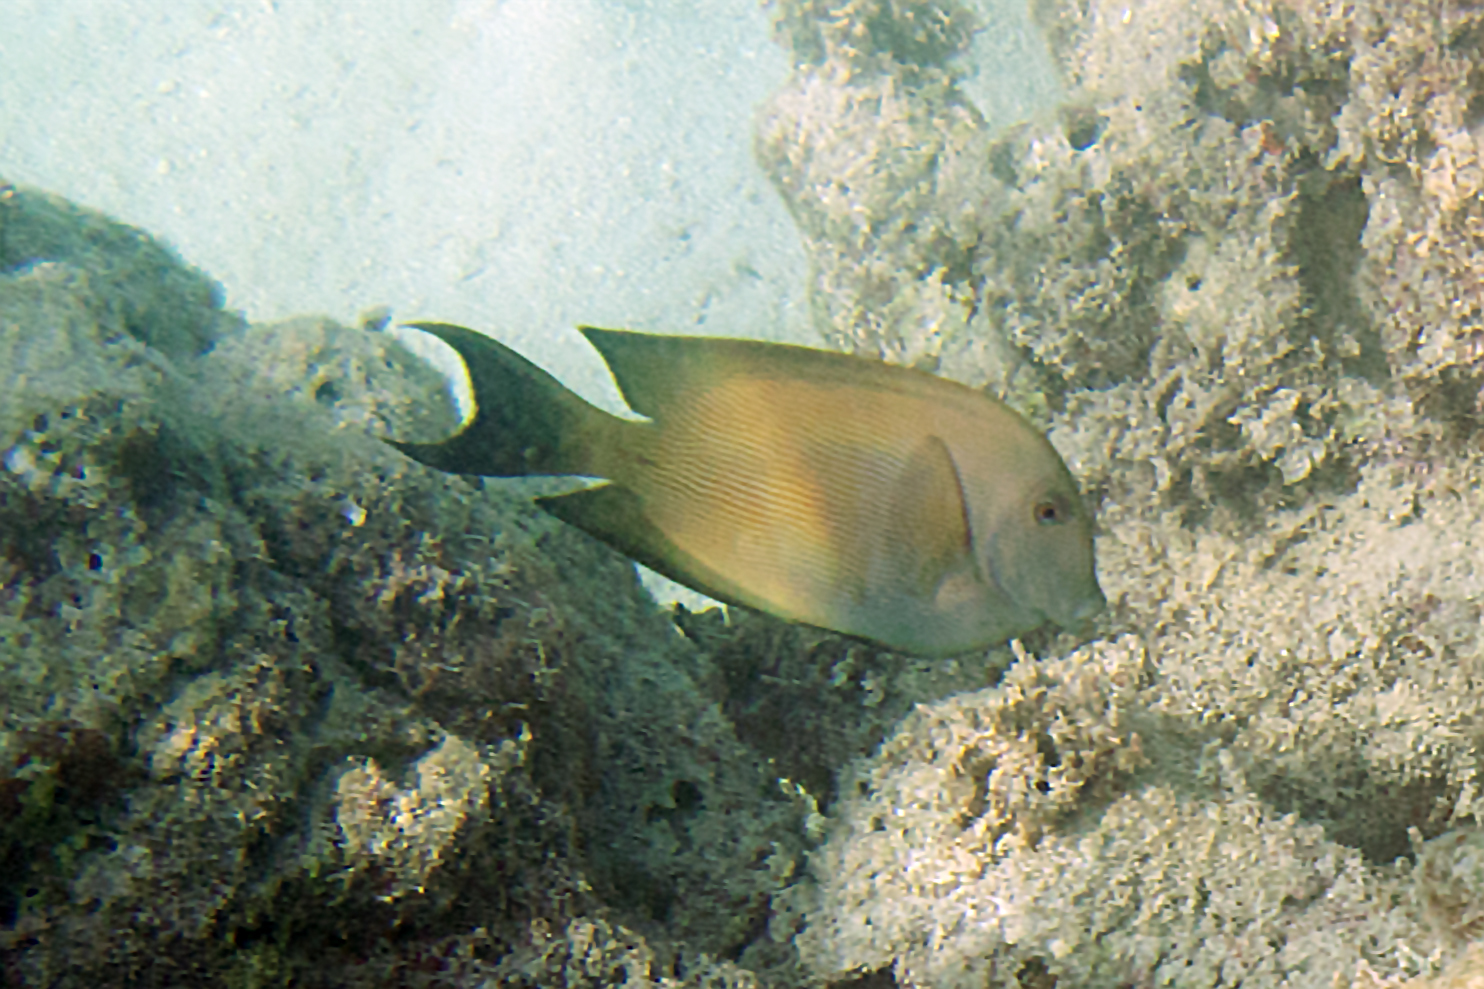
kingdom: Animalia
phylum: Chordata
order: Perciformes
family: Acanthuridae
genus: Ctenochaetus
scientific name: Ctenochaetus striatus
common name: Bristle-toothed surgeonfish
